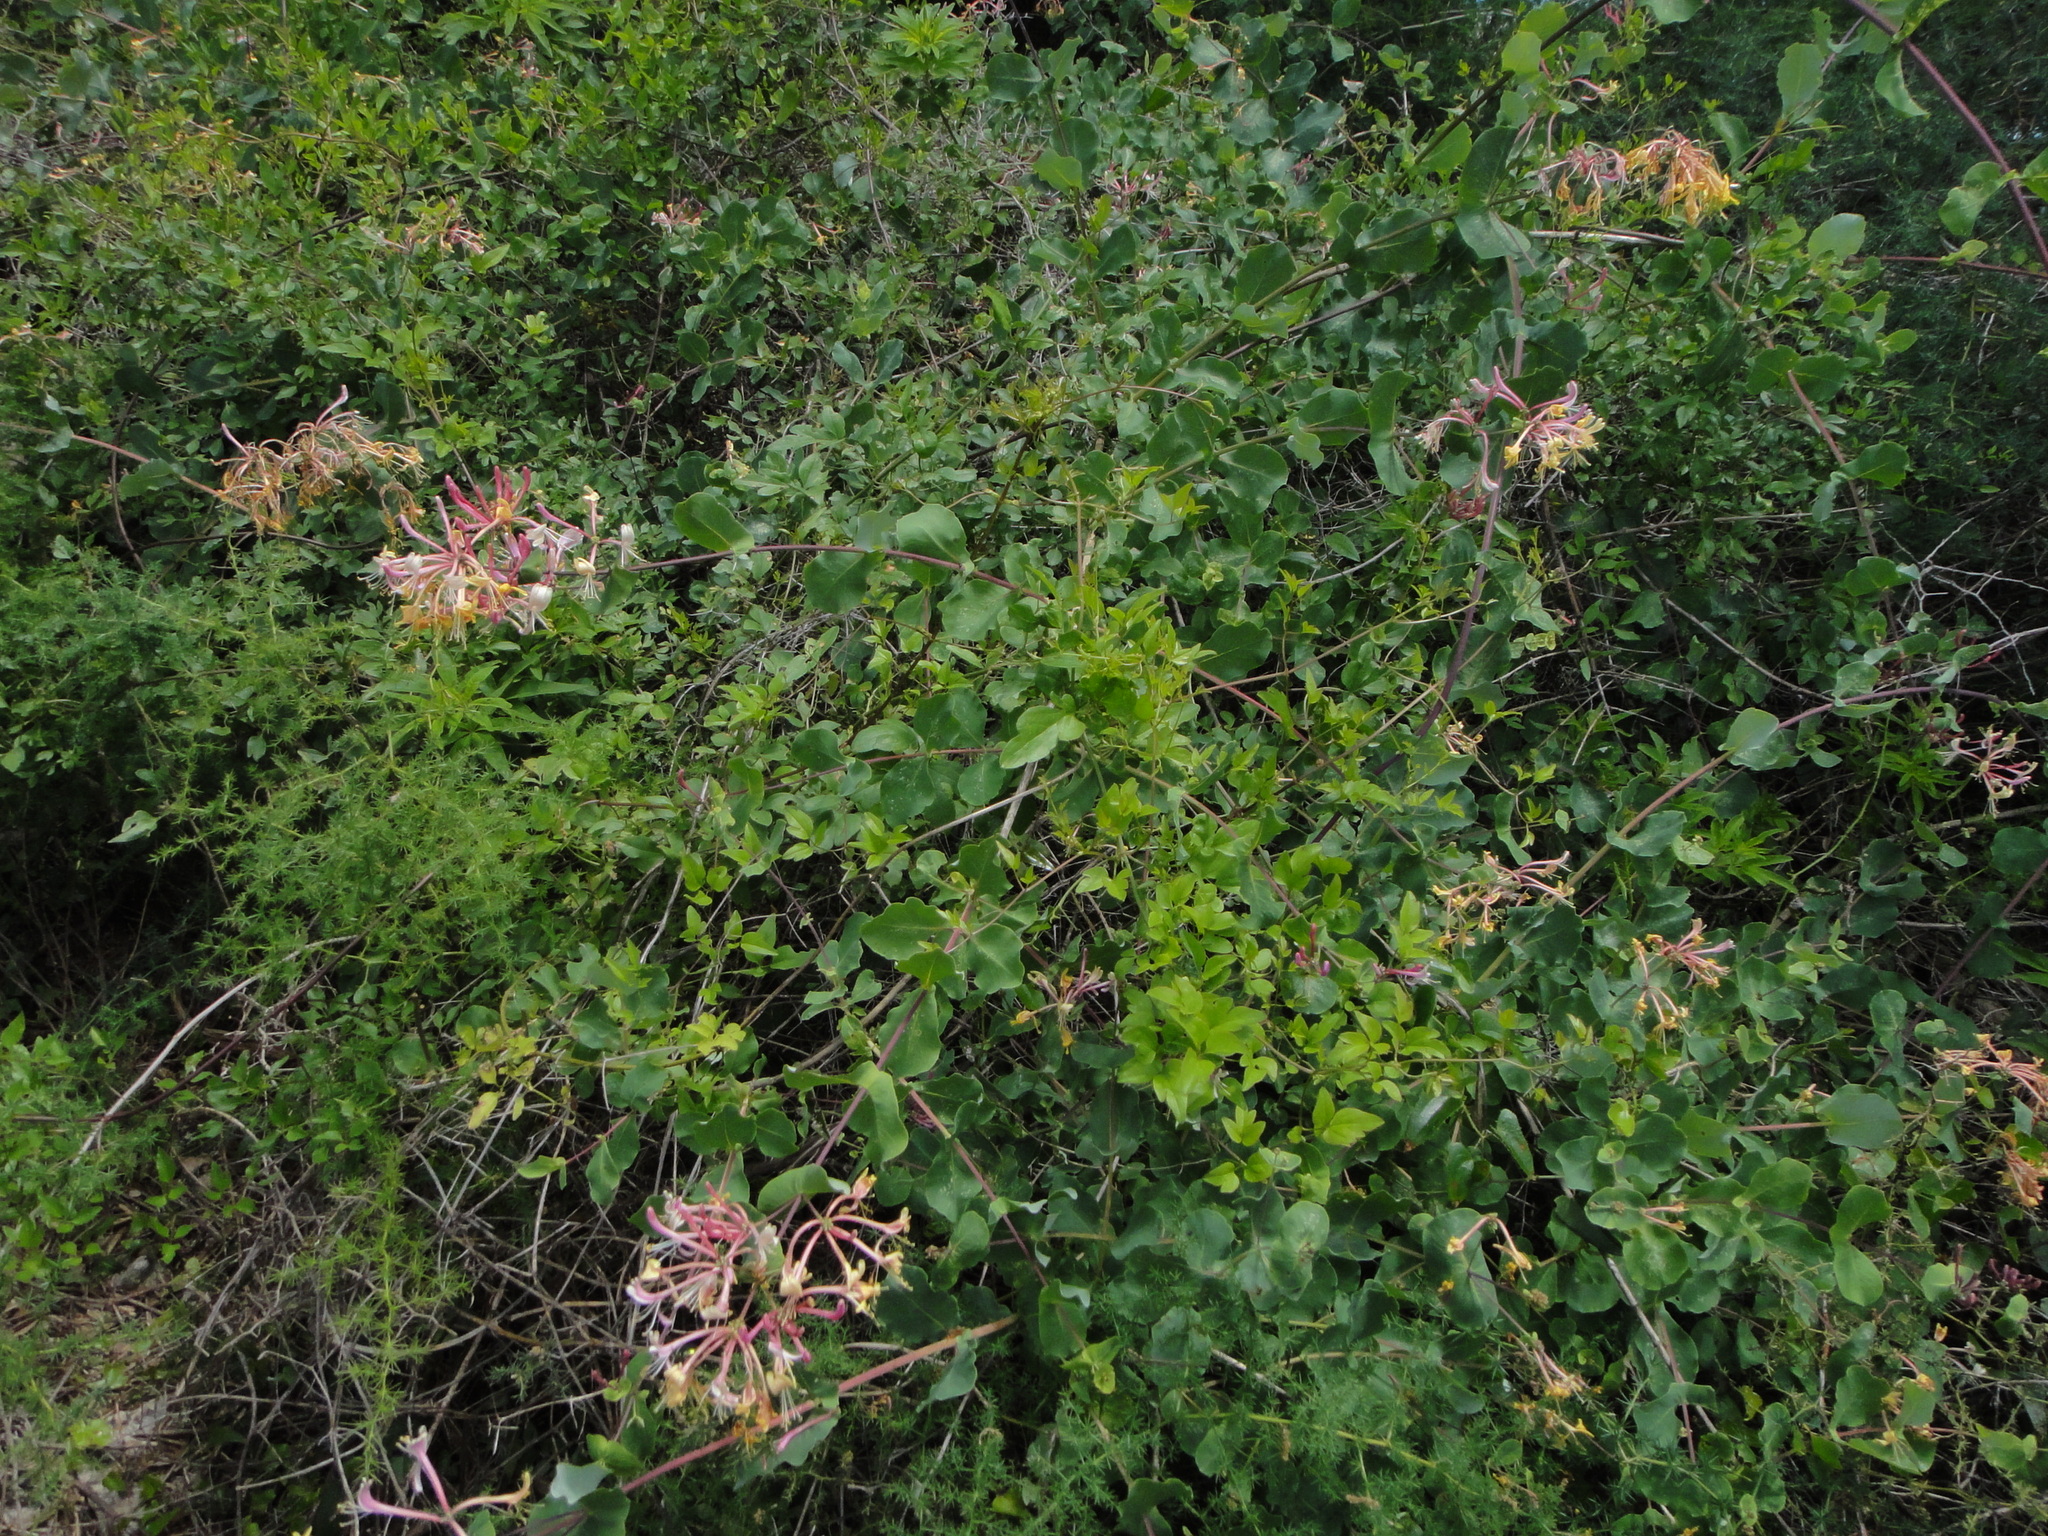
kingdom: Plantae
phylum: Tracheophyta
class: Magnoliopsida
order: Dipsacales
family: Caprifoliaceae
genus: Lonicera
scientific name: Lonicera etrusca
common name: Etruscan honeysuckle
